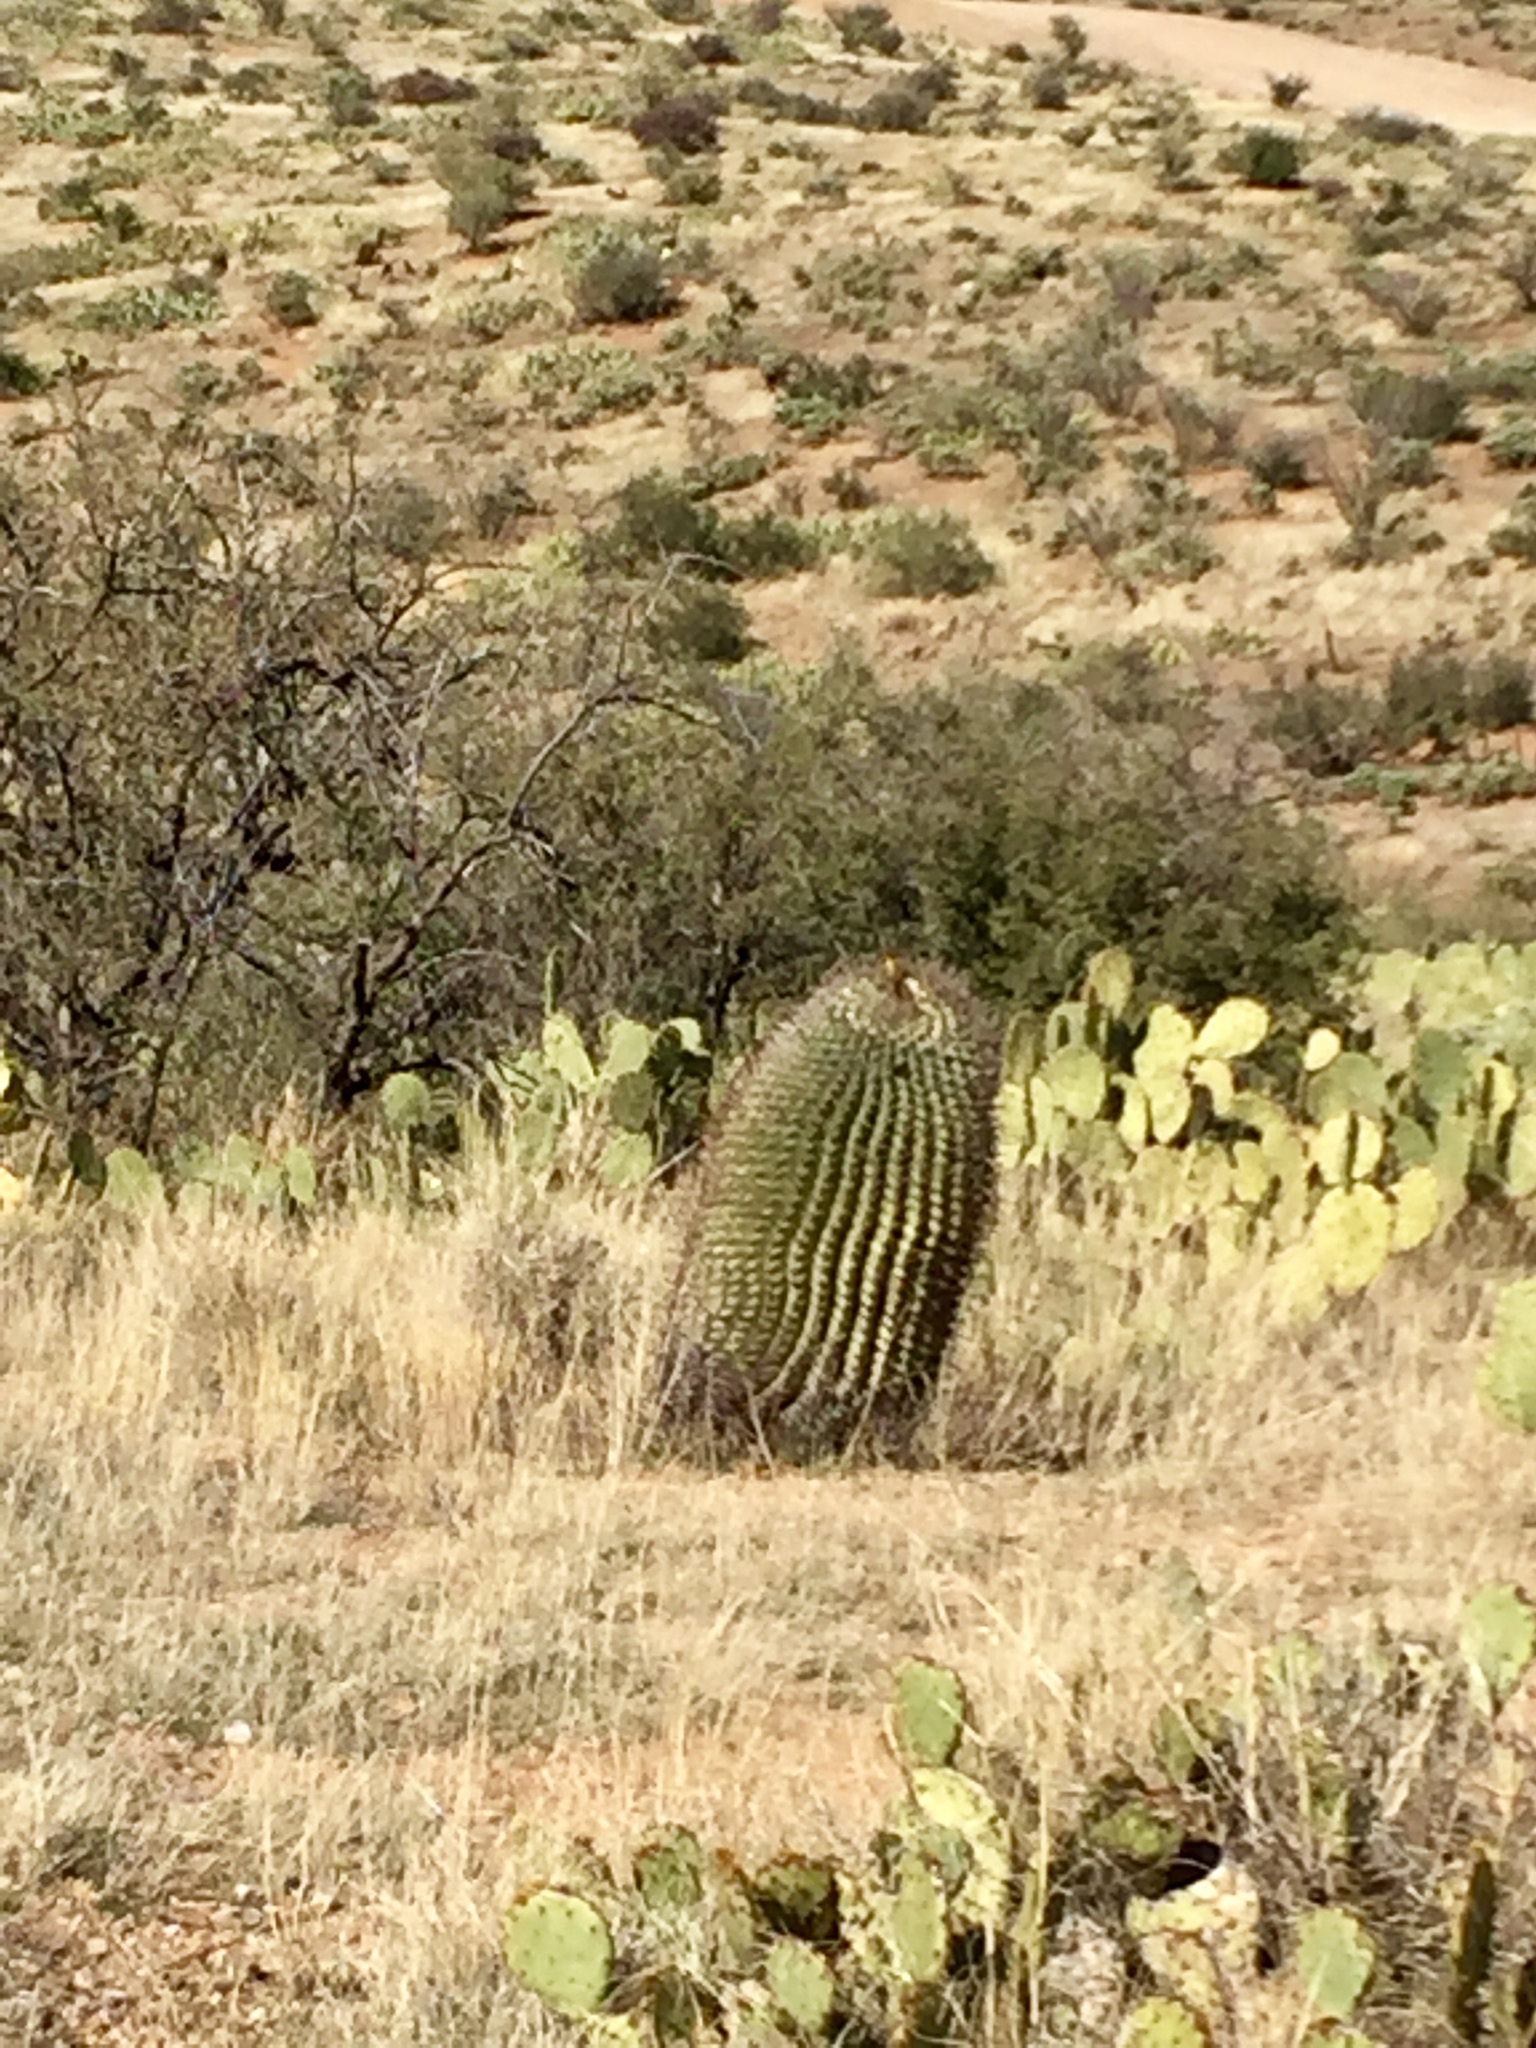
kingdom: Plantae
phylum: Tracheophyta
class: Magnoliopsida
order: Caryophyllales
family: Cactaceae
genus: Ferocactus
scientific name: Ferocactus wislizeni
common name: Candy barrel cactus
